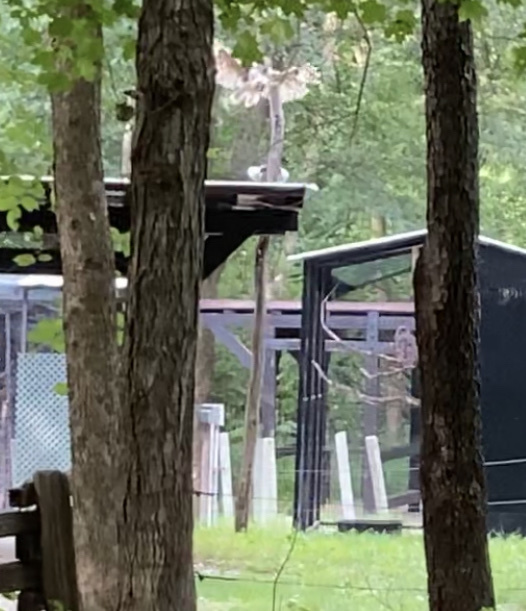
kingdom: Animalia
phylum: Chordata
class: Aves
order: Strigiformes
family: Strigidae
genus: Strix
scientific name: Strix varia
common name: Barred owl
